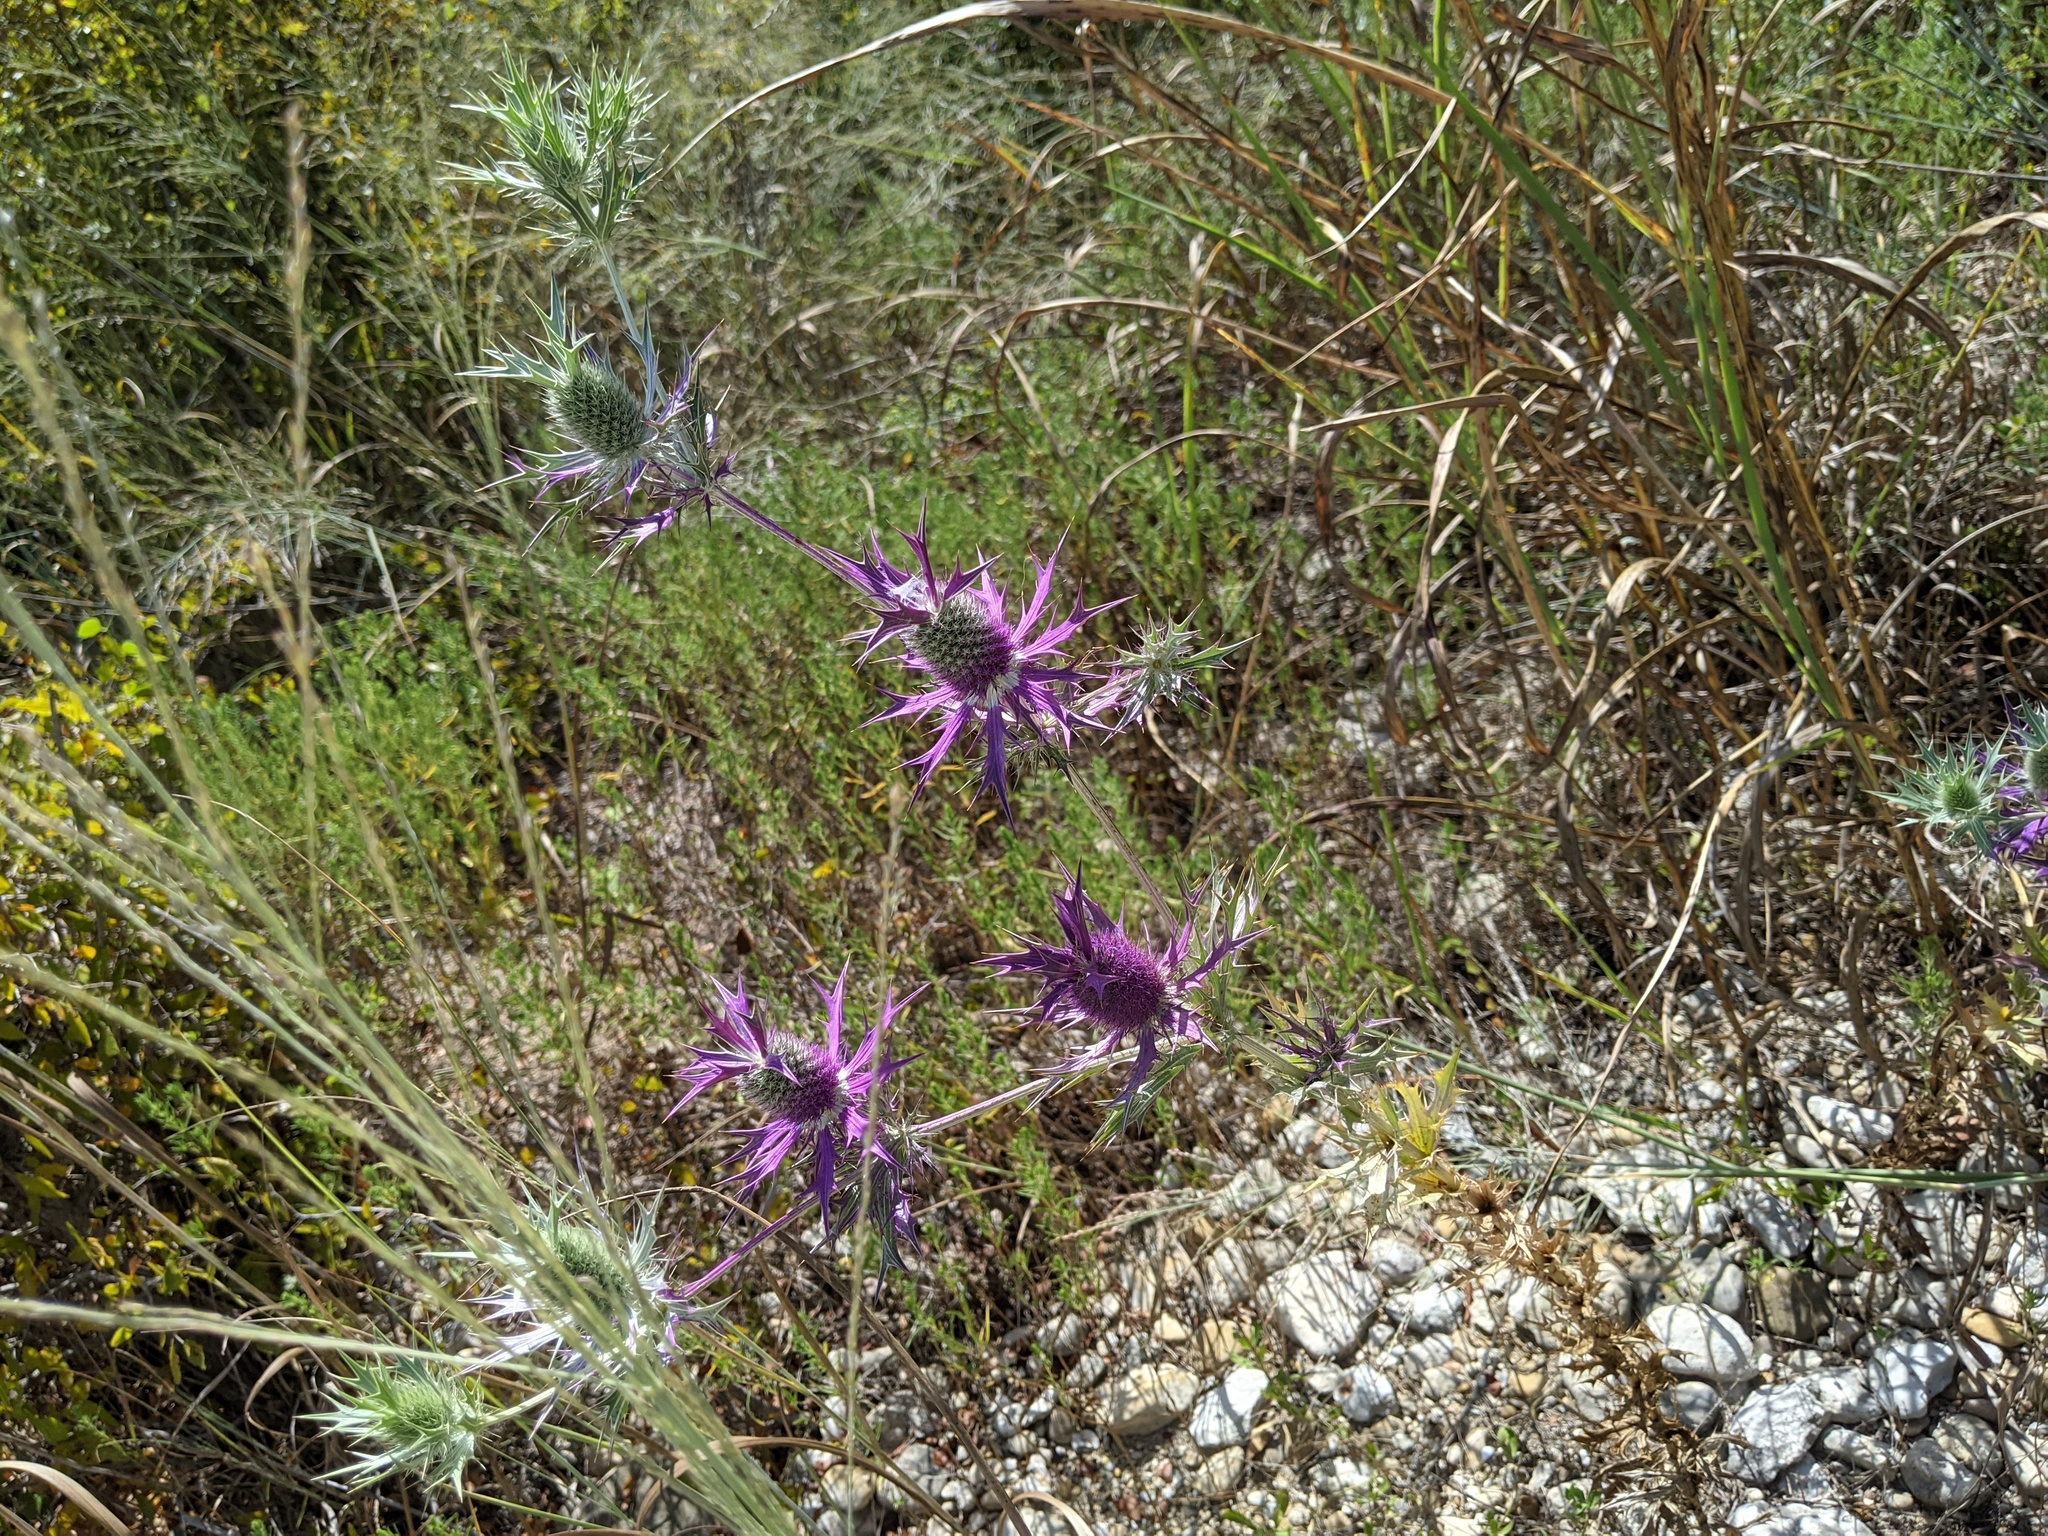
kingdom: Plantae
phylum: Tracheophyta
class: Magnoliopsida
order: Apiales
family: Apiaceae
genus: Eryngium
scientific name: Eryngium leavenworthii
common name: Leavenworth's eryngo
